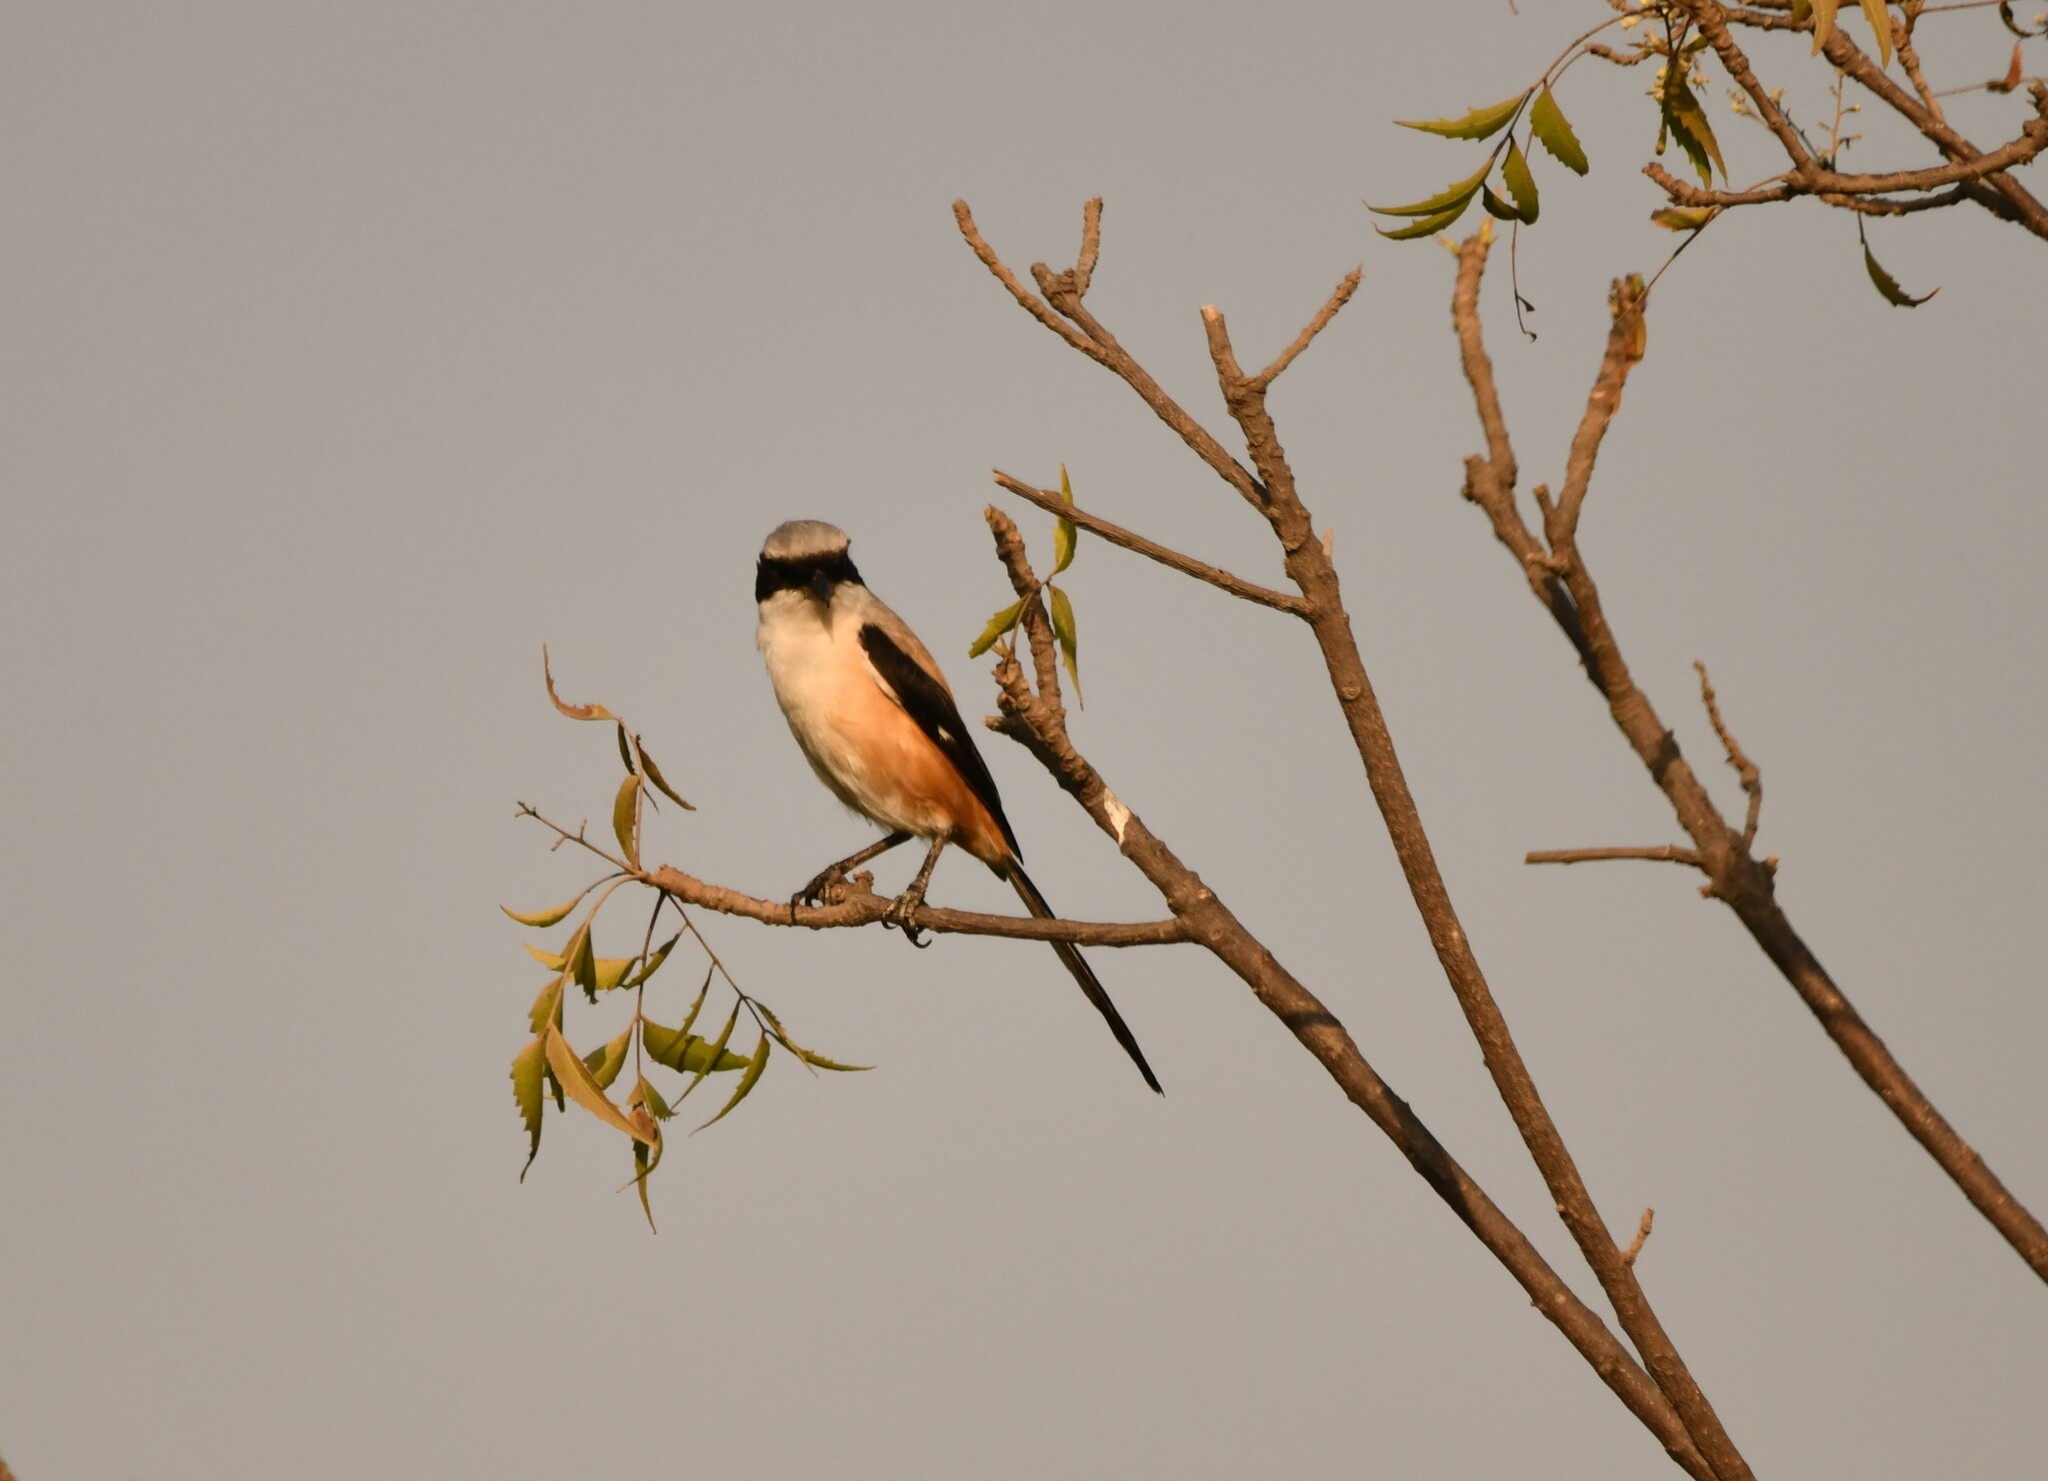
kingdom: Animalia
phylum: Chordata
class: Aves
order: Passeriformes
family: Laniidae
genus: Lanius
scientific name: Lanius schach
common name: Long-tailed shrike
